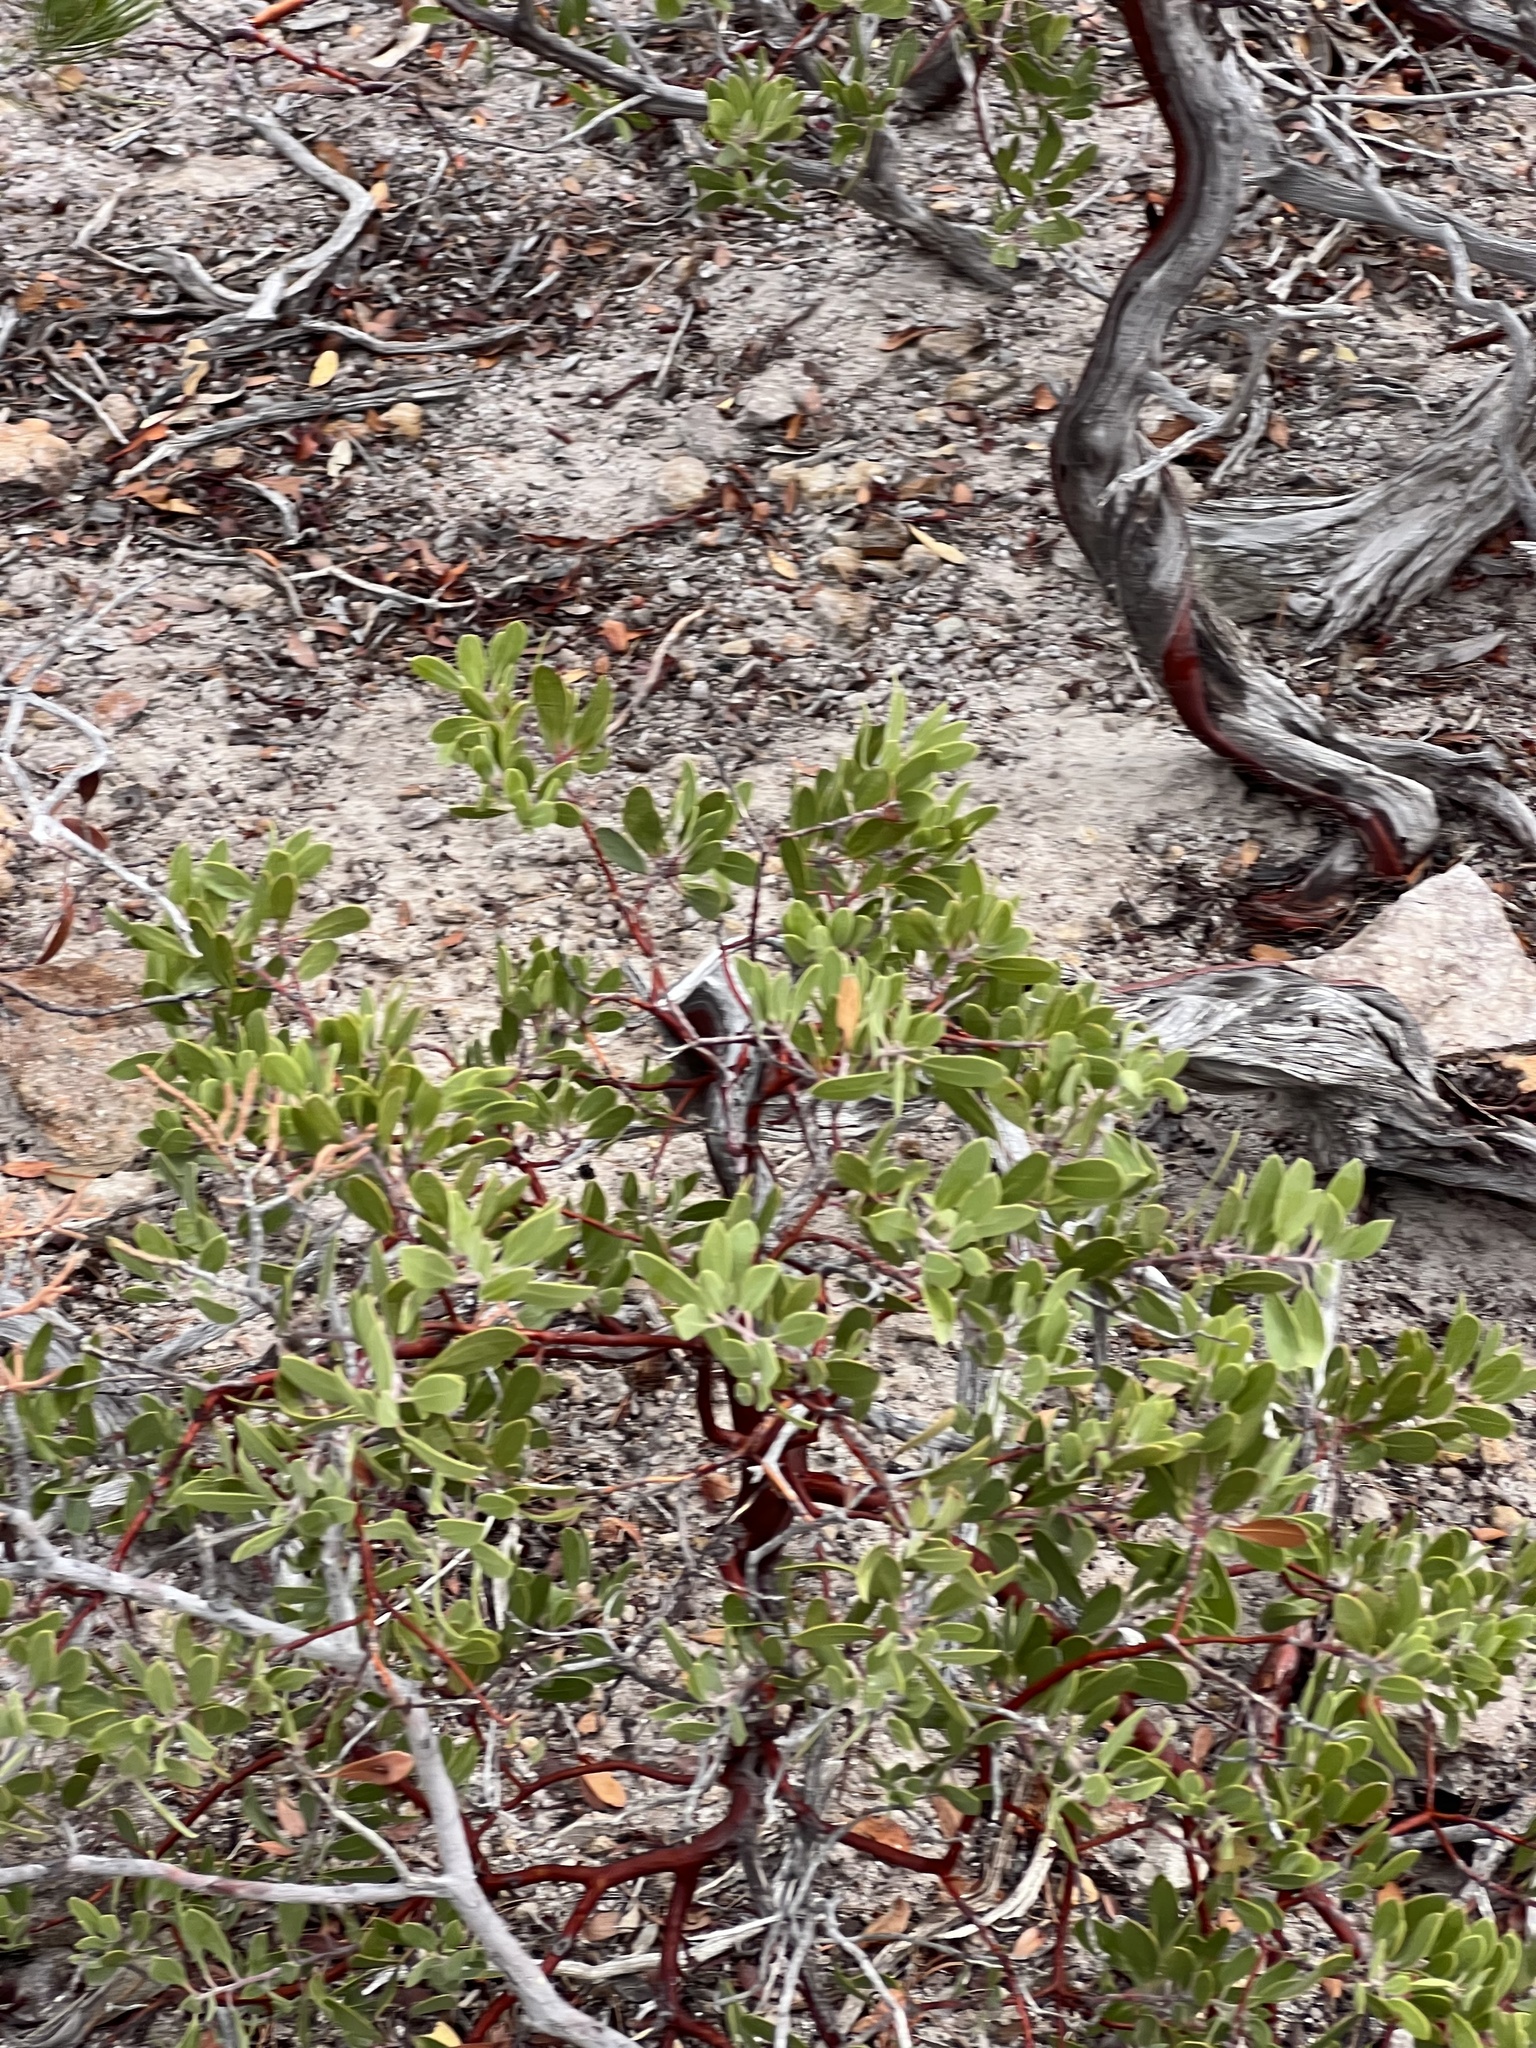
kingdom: Plantae
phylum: Tracheophyta
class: Magnoliopsida
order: Ericales
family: Ericaceae
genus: Arctostaphylos
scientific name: Arctostaphylos pungens
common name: Mexican manzanita
